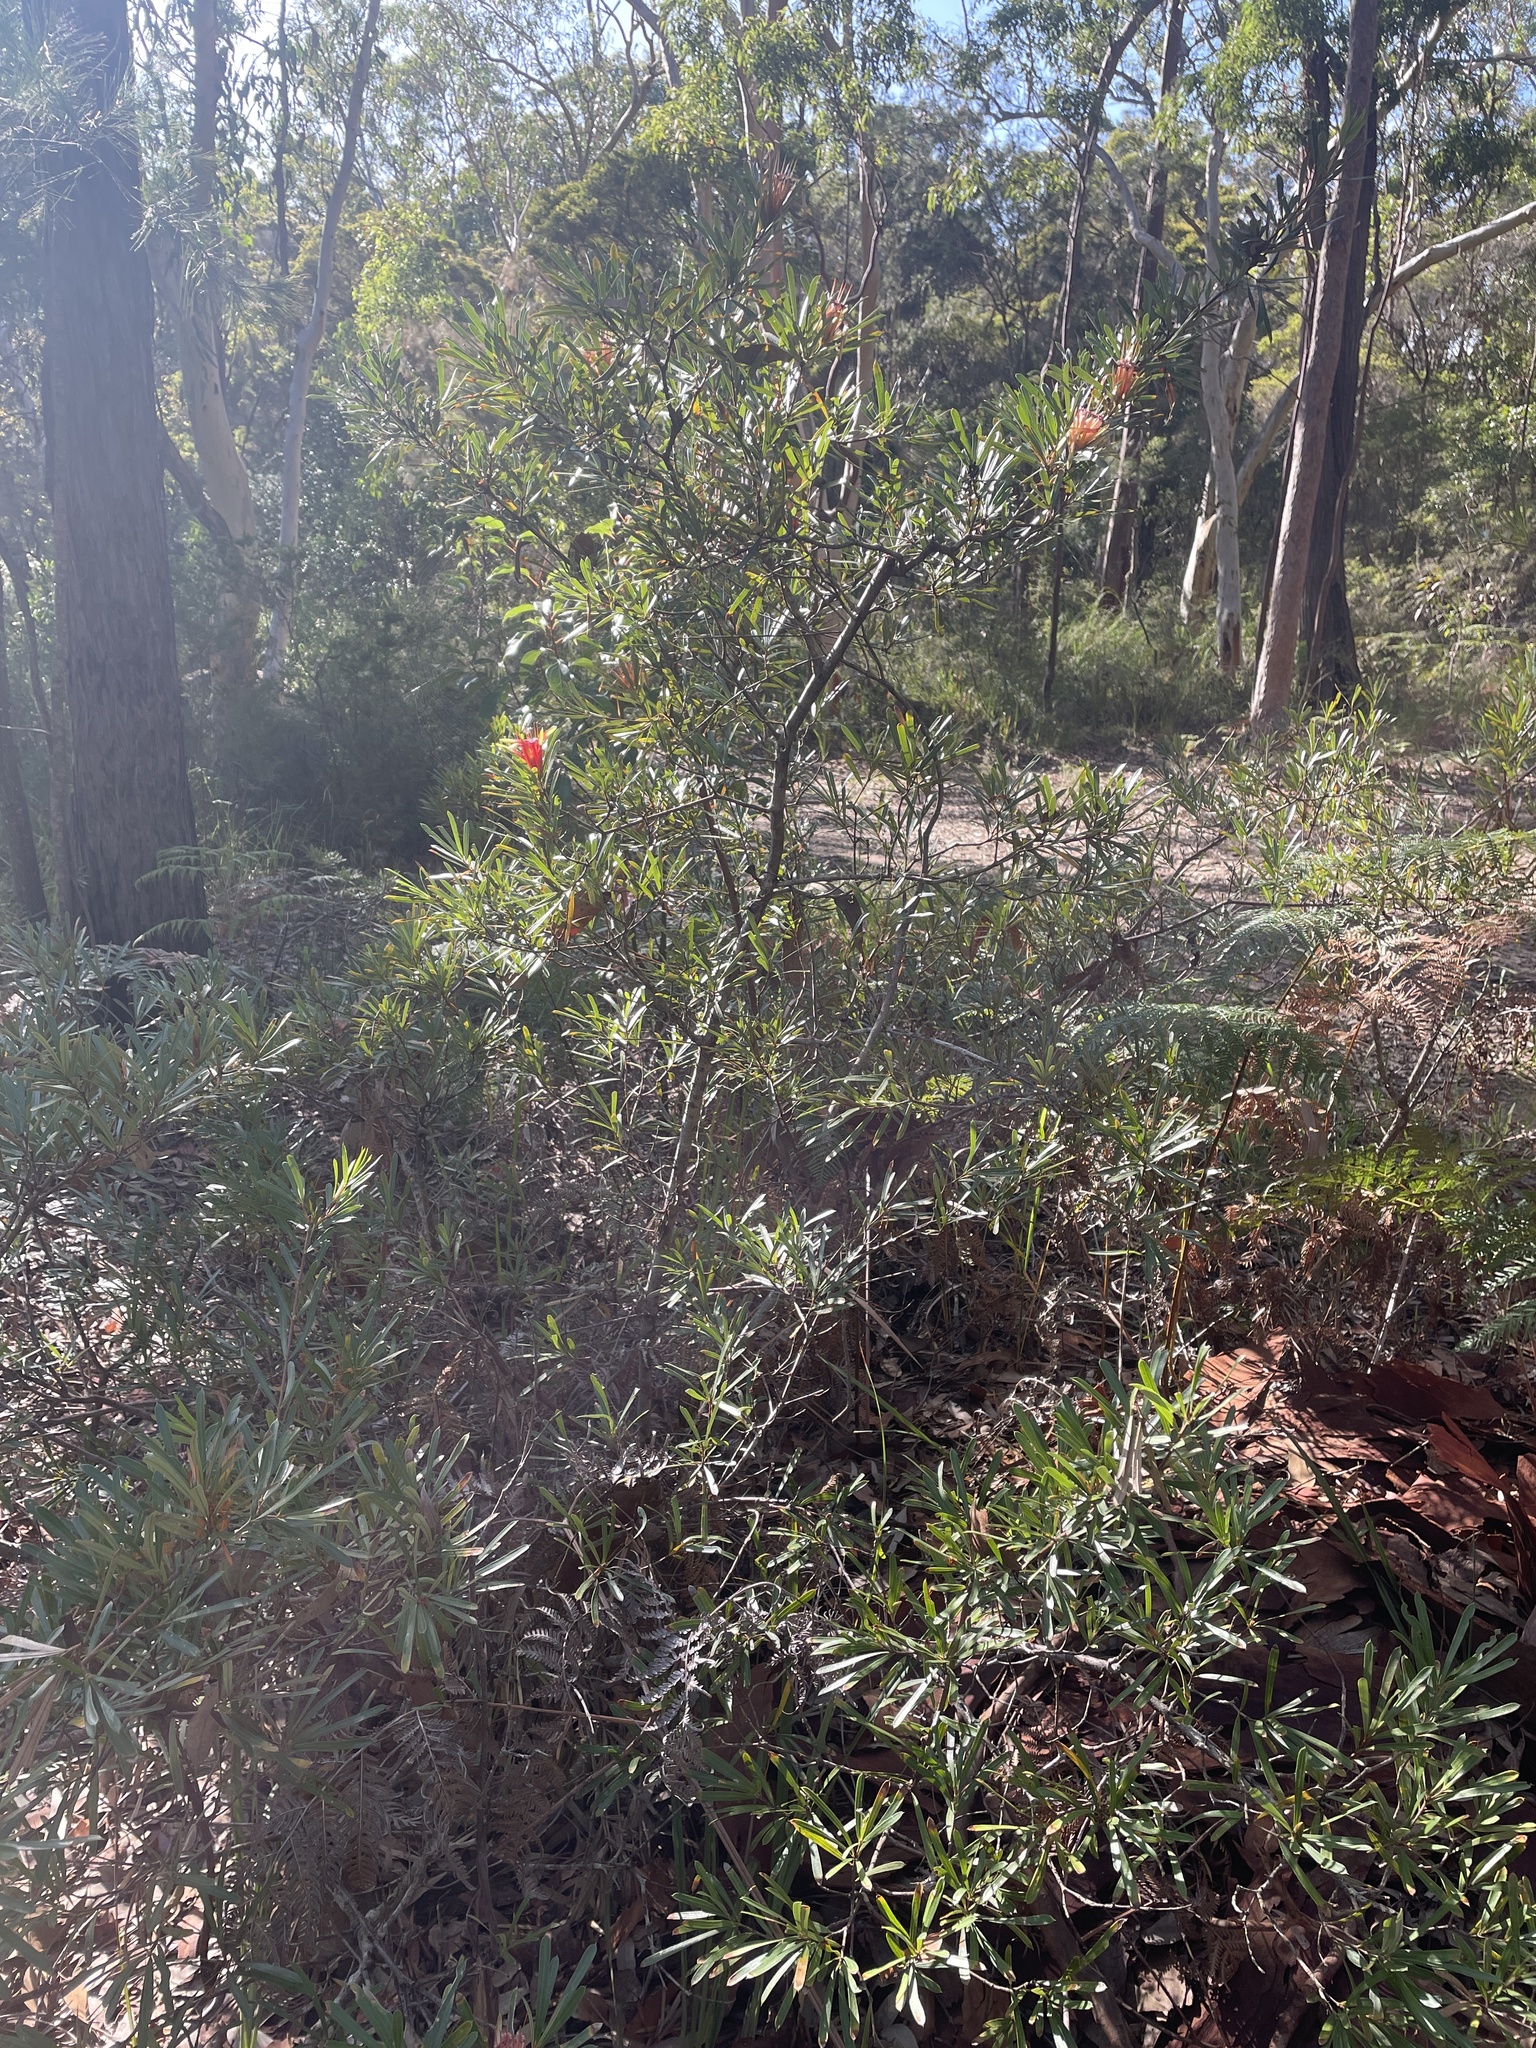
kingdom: Plantae
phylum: Tracheophyta
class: Magnoliopsida
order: Proteales
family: Proteaceae
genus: Lambertia
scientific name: Lambertia formosa
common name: Mountain-devil
